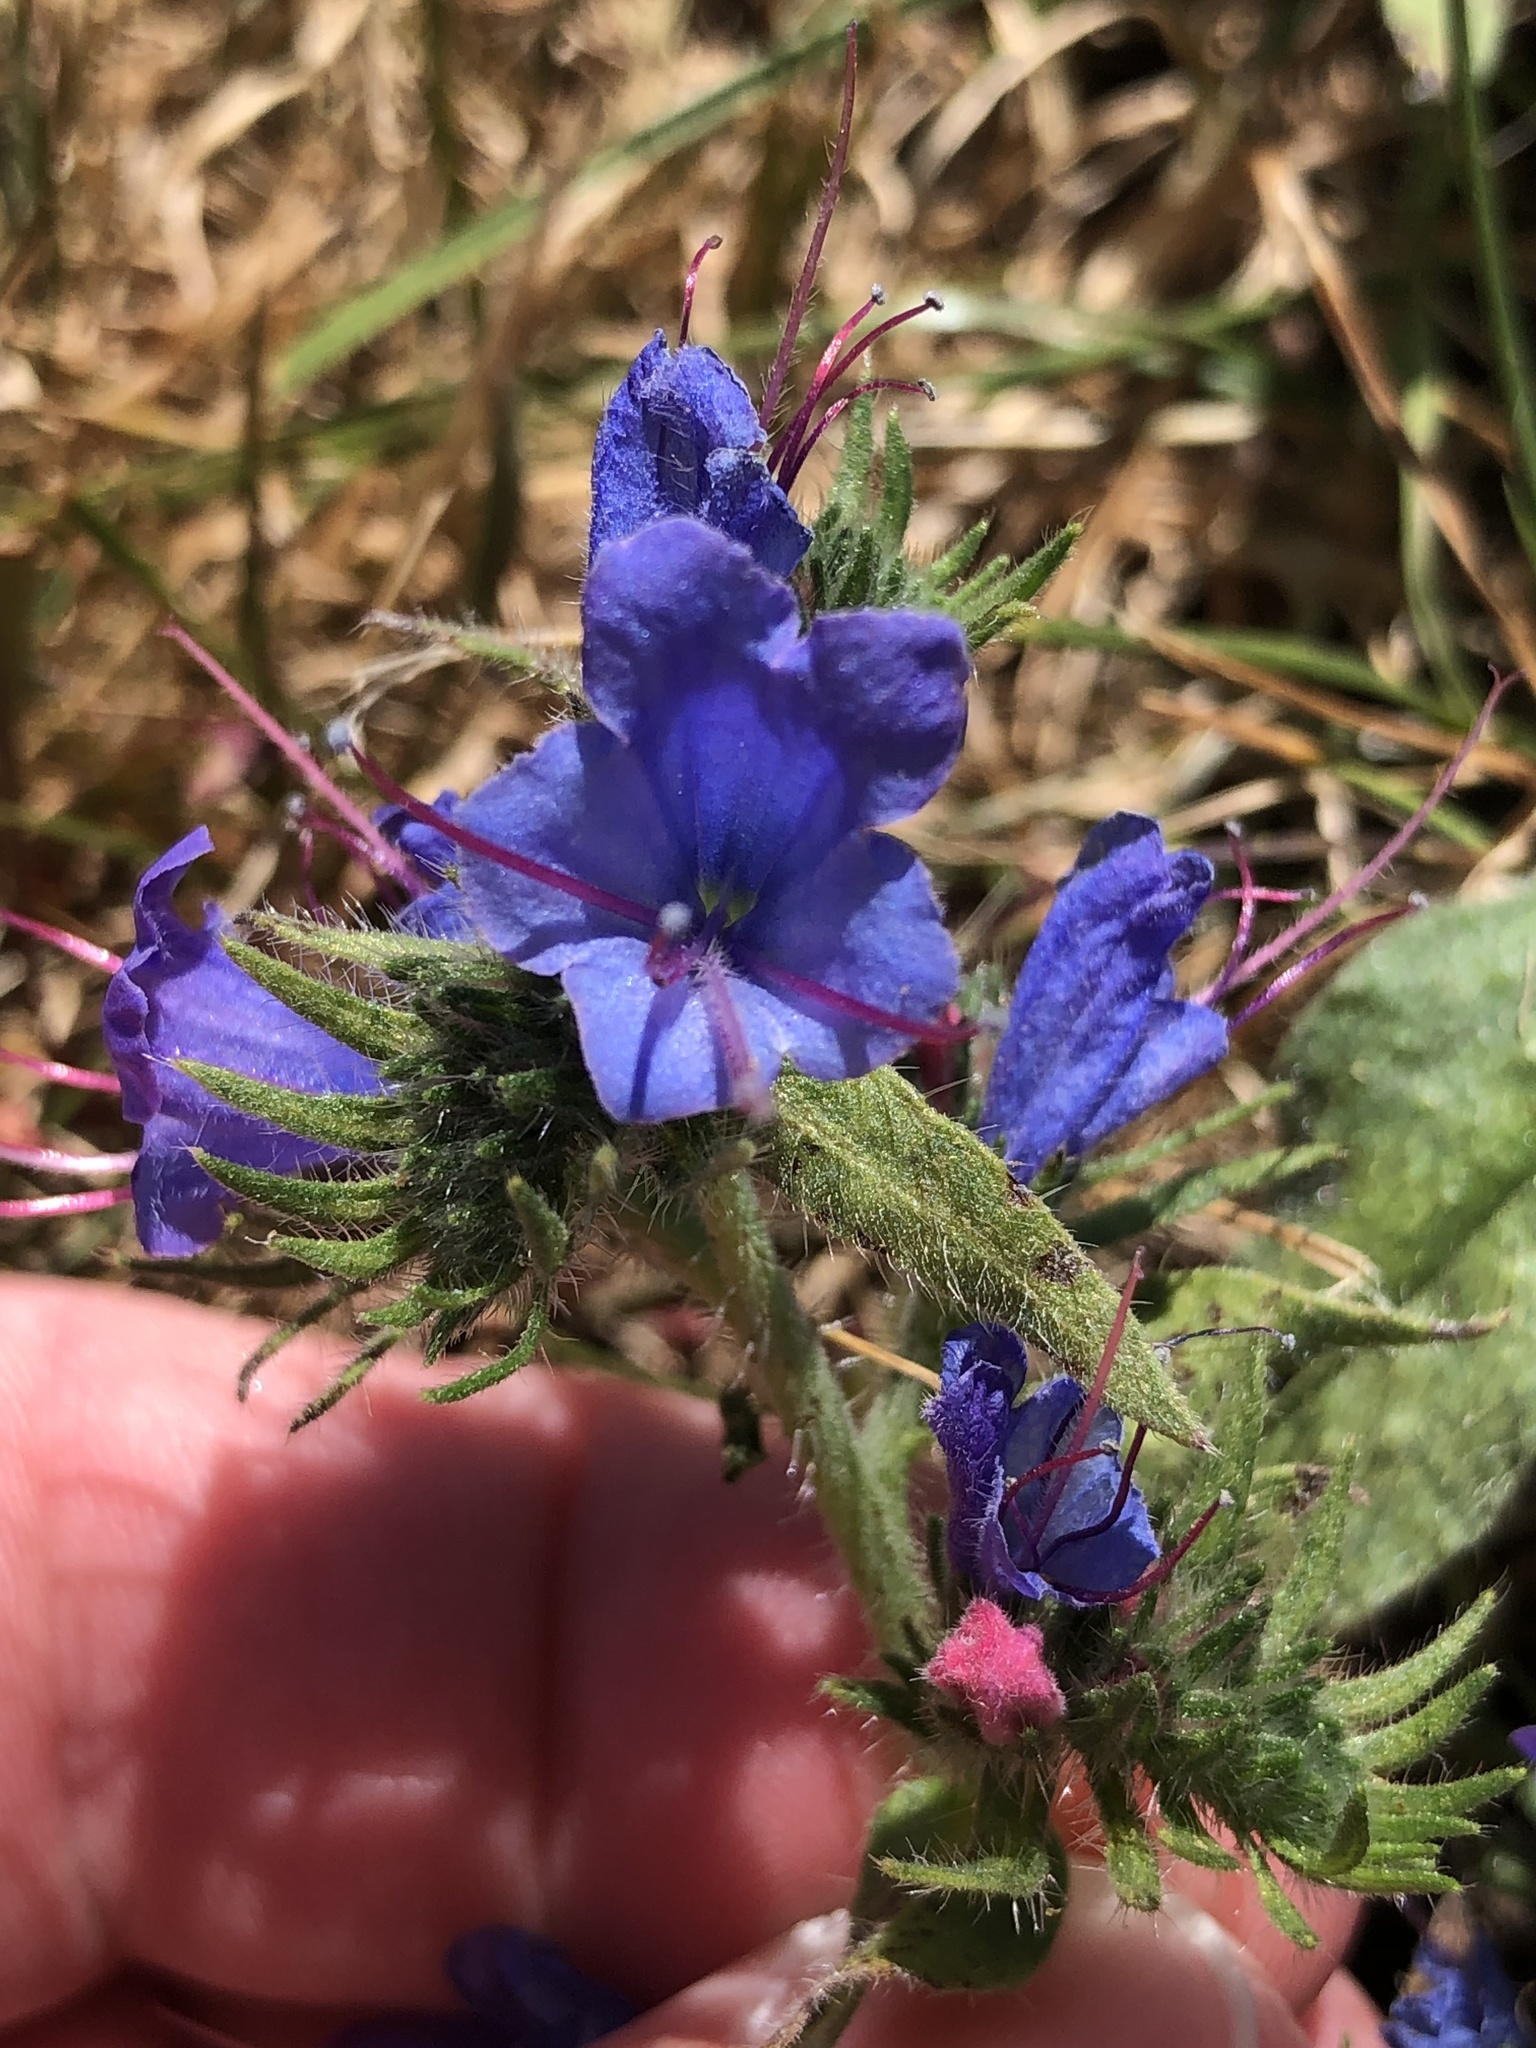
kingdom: Plantae
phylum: Tracheophyta
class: Magnoliopsida
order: Boraginales
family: Boraginaceae
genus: Echium
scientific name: Echium vulgare
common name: Common viper's bugloss
